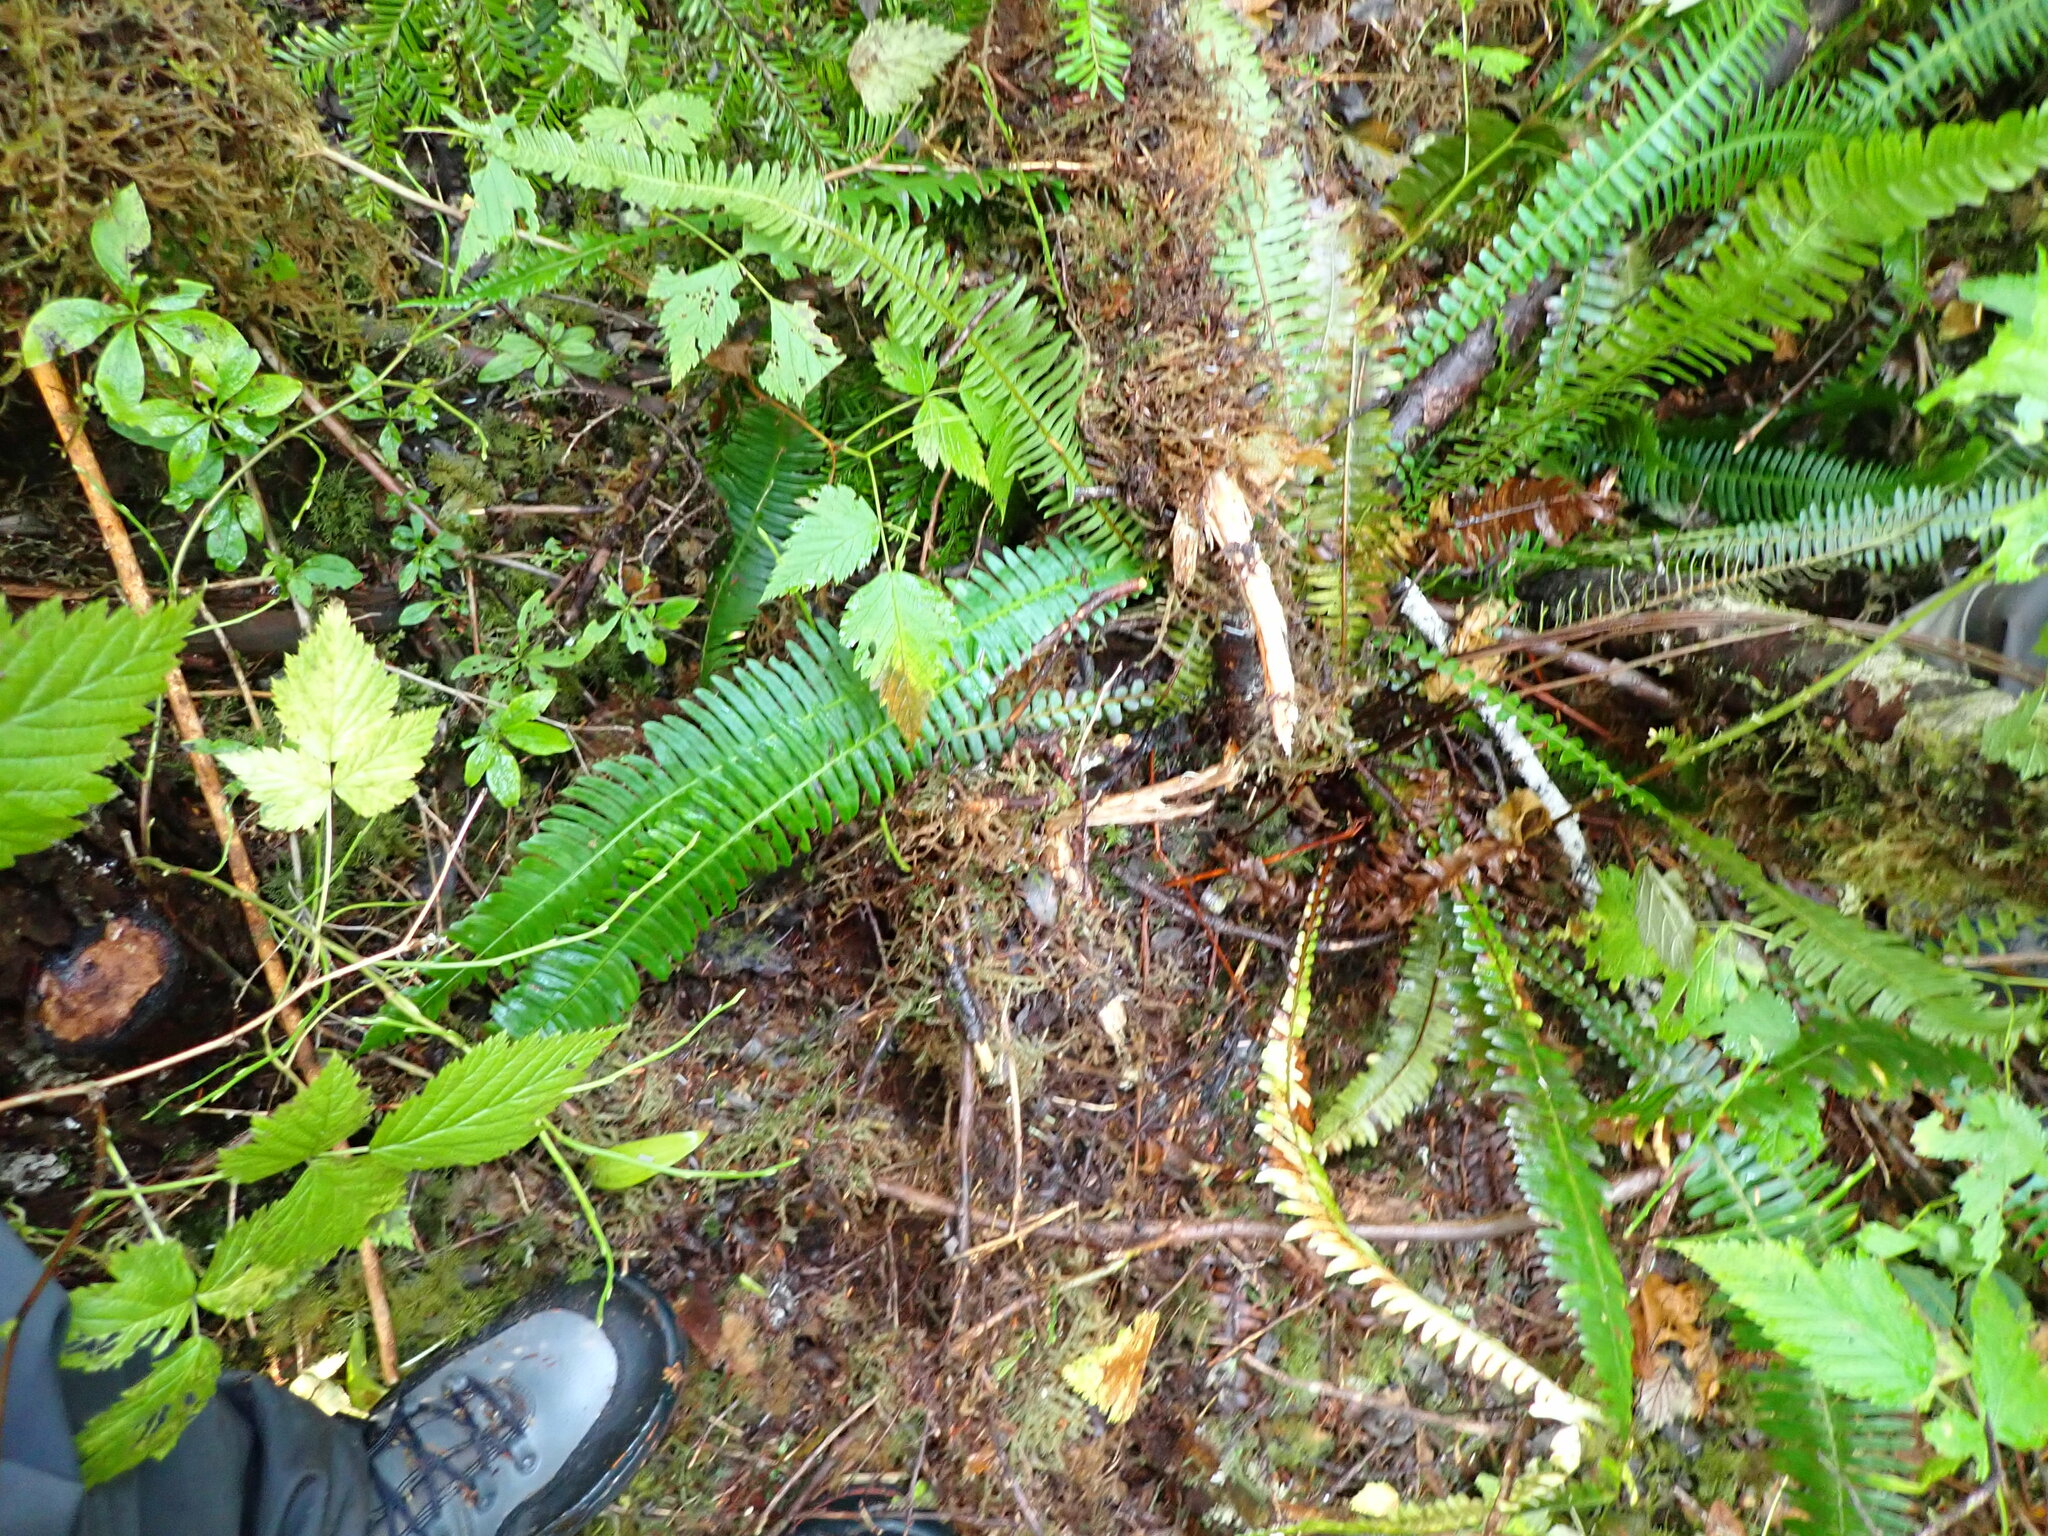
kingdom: Plantae
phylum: Tracheophyta
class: Polypodiopsida
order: Polypodiales
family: Blechnaceae
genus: Struthiopteris
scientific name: Struthiopteris spicant
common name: Deer fern
